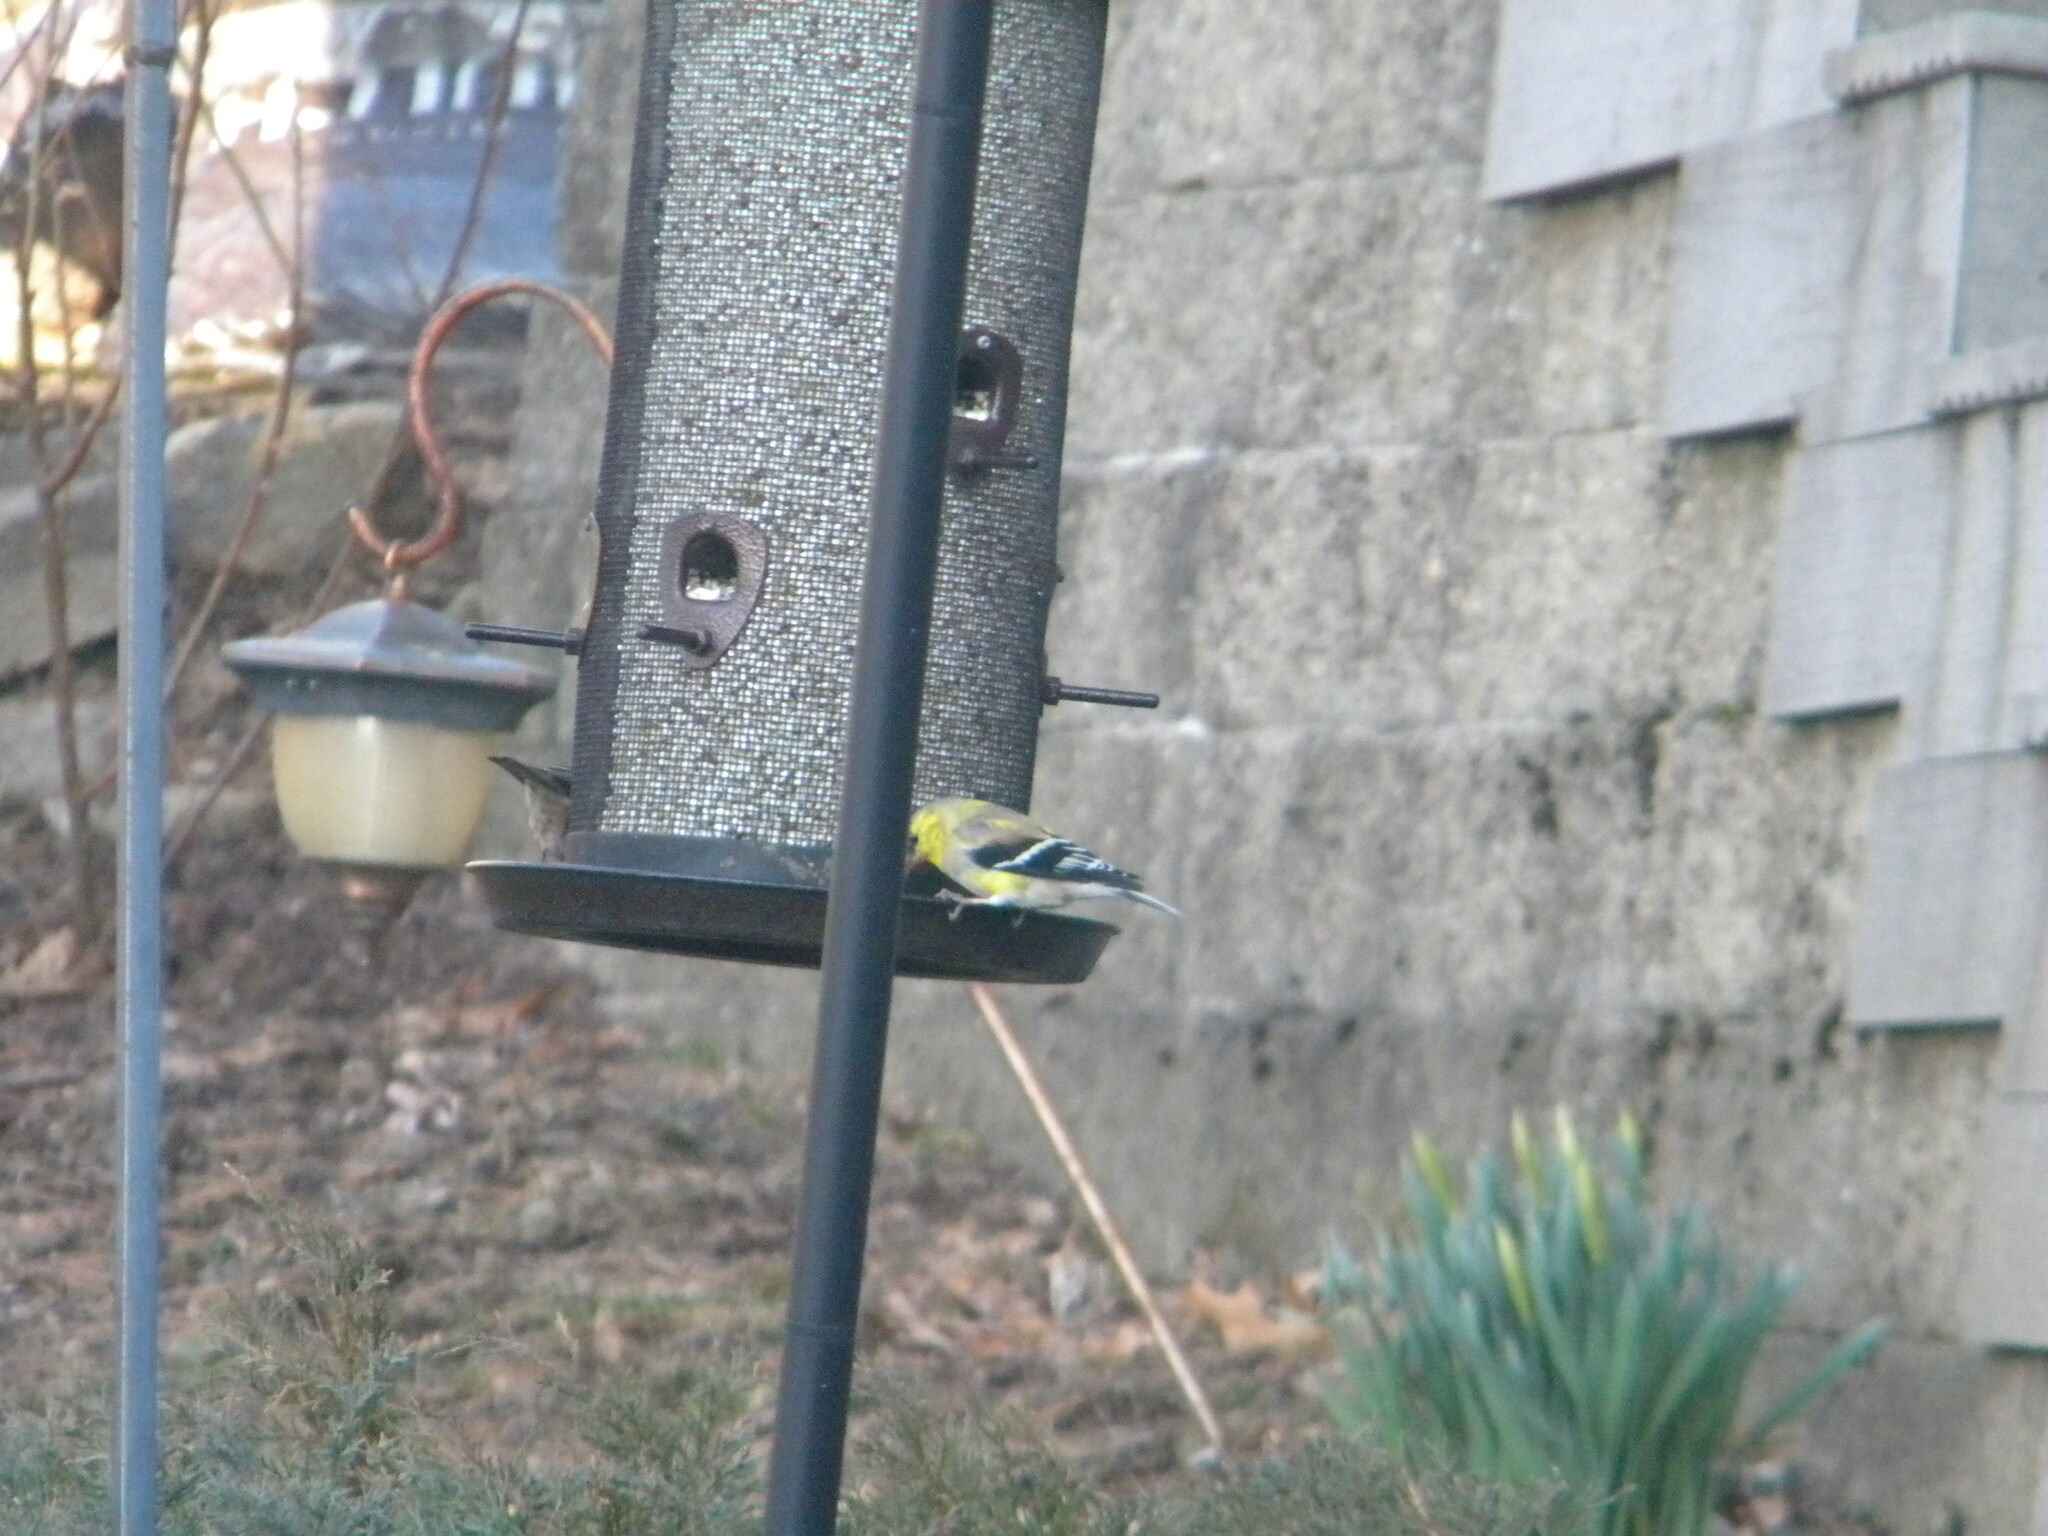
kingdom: Animalia
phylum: Chordata
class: Aves
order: Passeriformes
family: Fringillidae
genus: Spinus
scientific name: Spinus tristis
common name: American goldfinch
